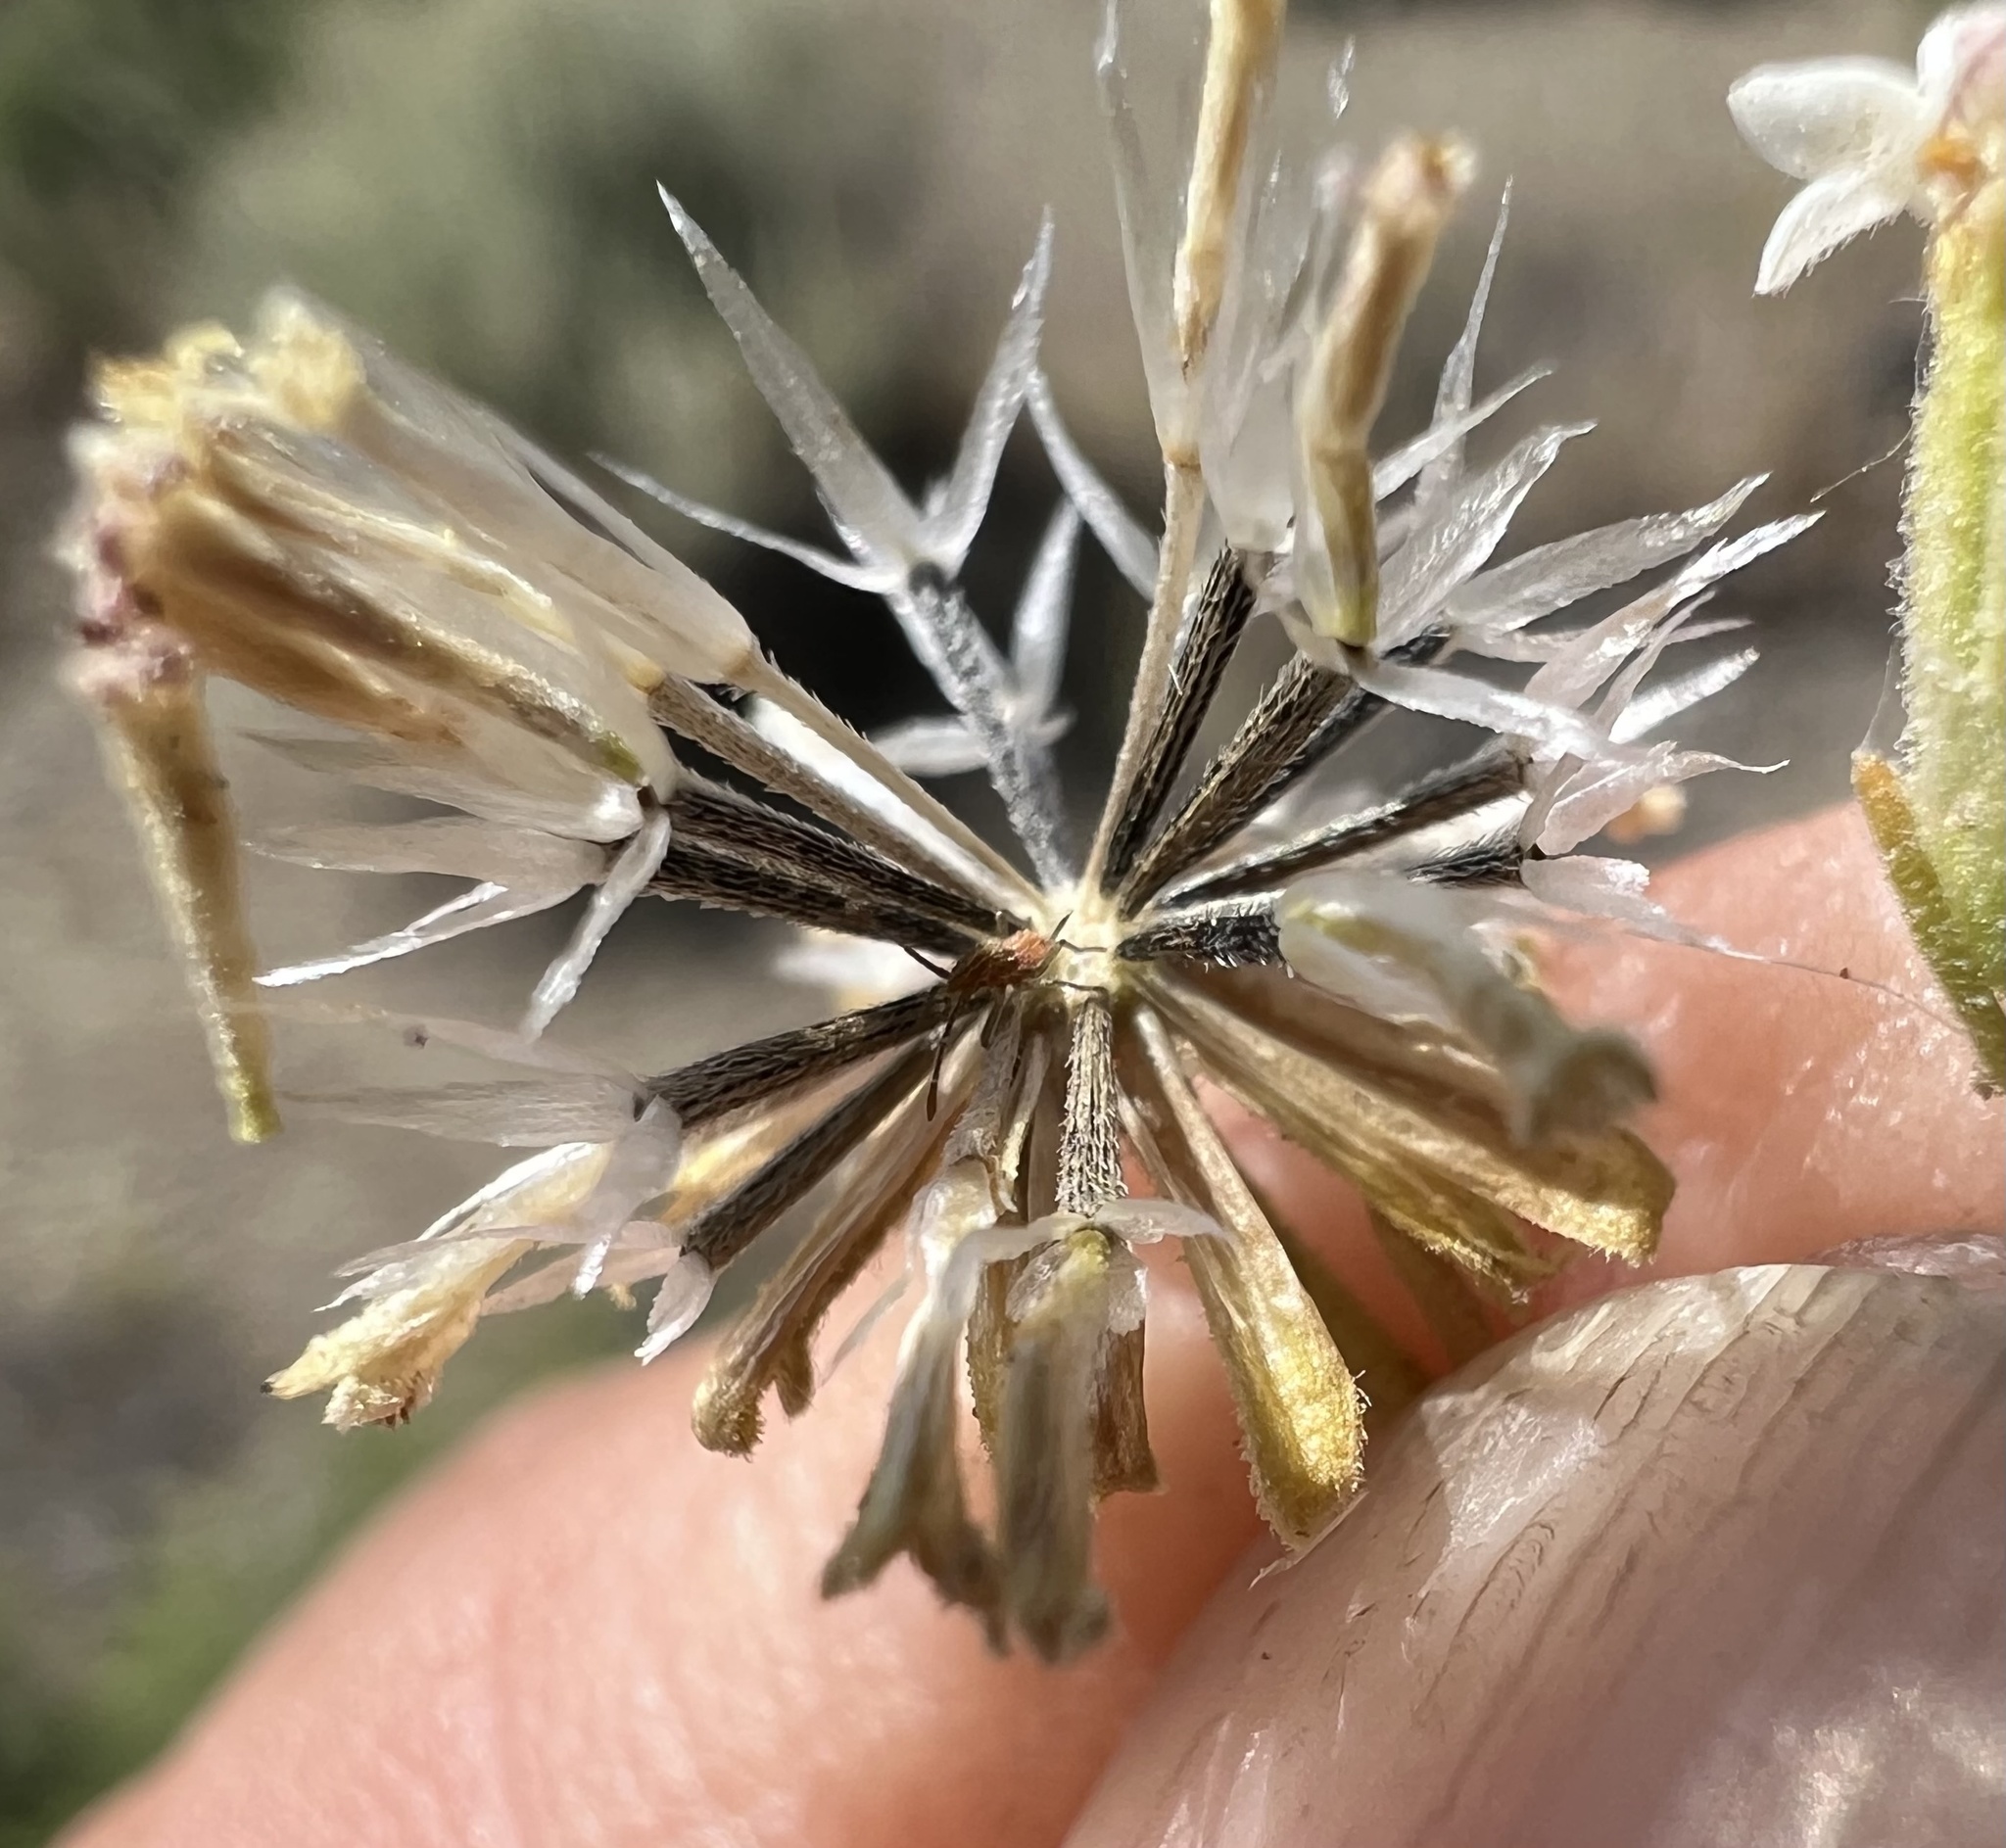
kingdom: Plantae
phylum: Tracheophyta
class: Magnoliopsida
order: Asterales
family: Asteraceae
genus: Chaenactis
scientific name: Chaenactis stevioides
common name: Desert pincushion
